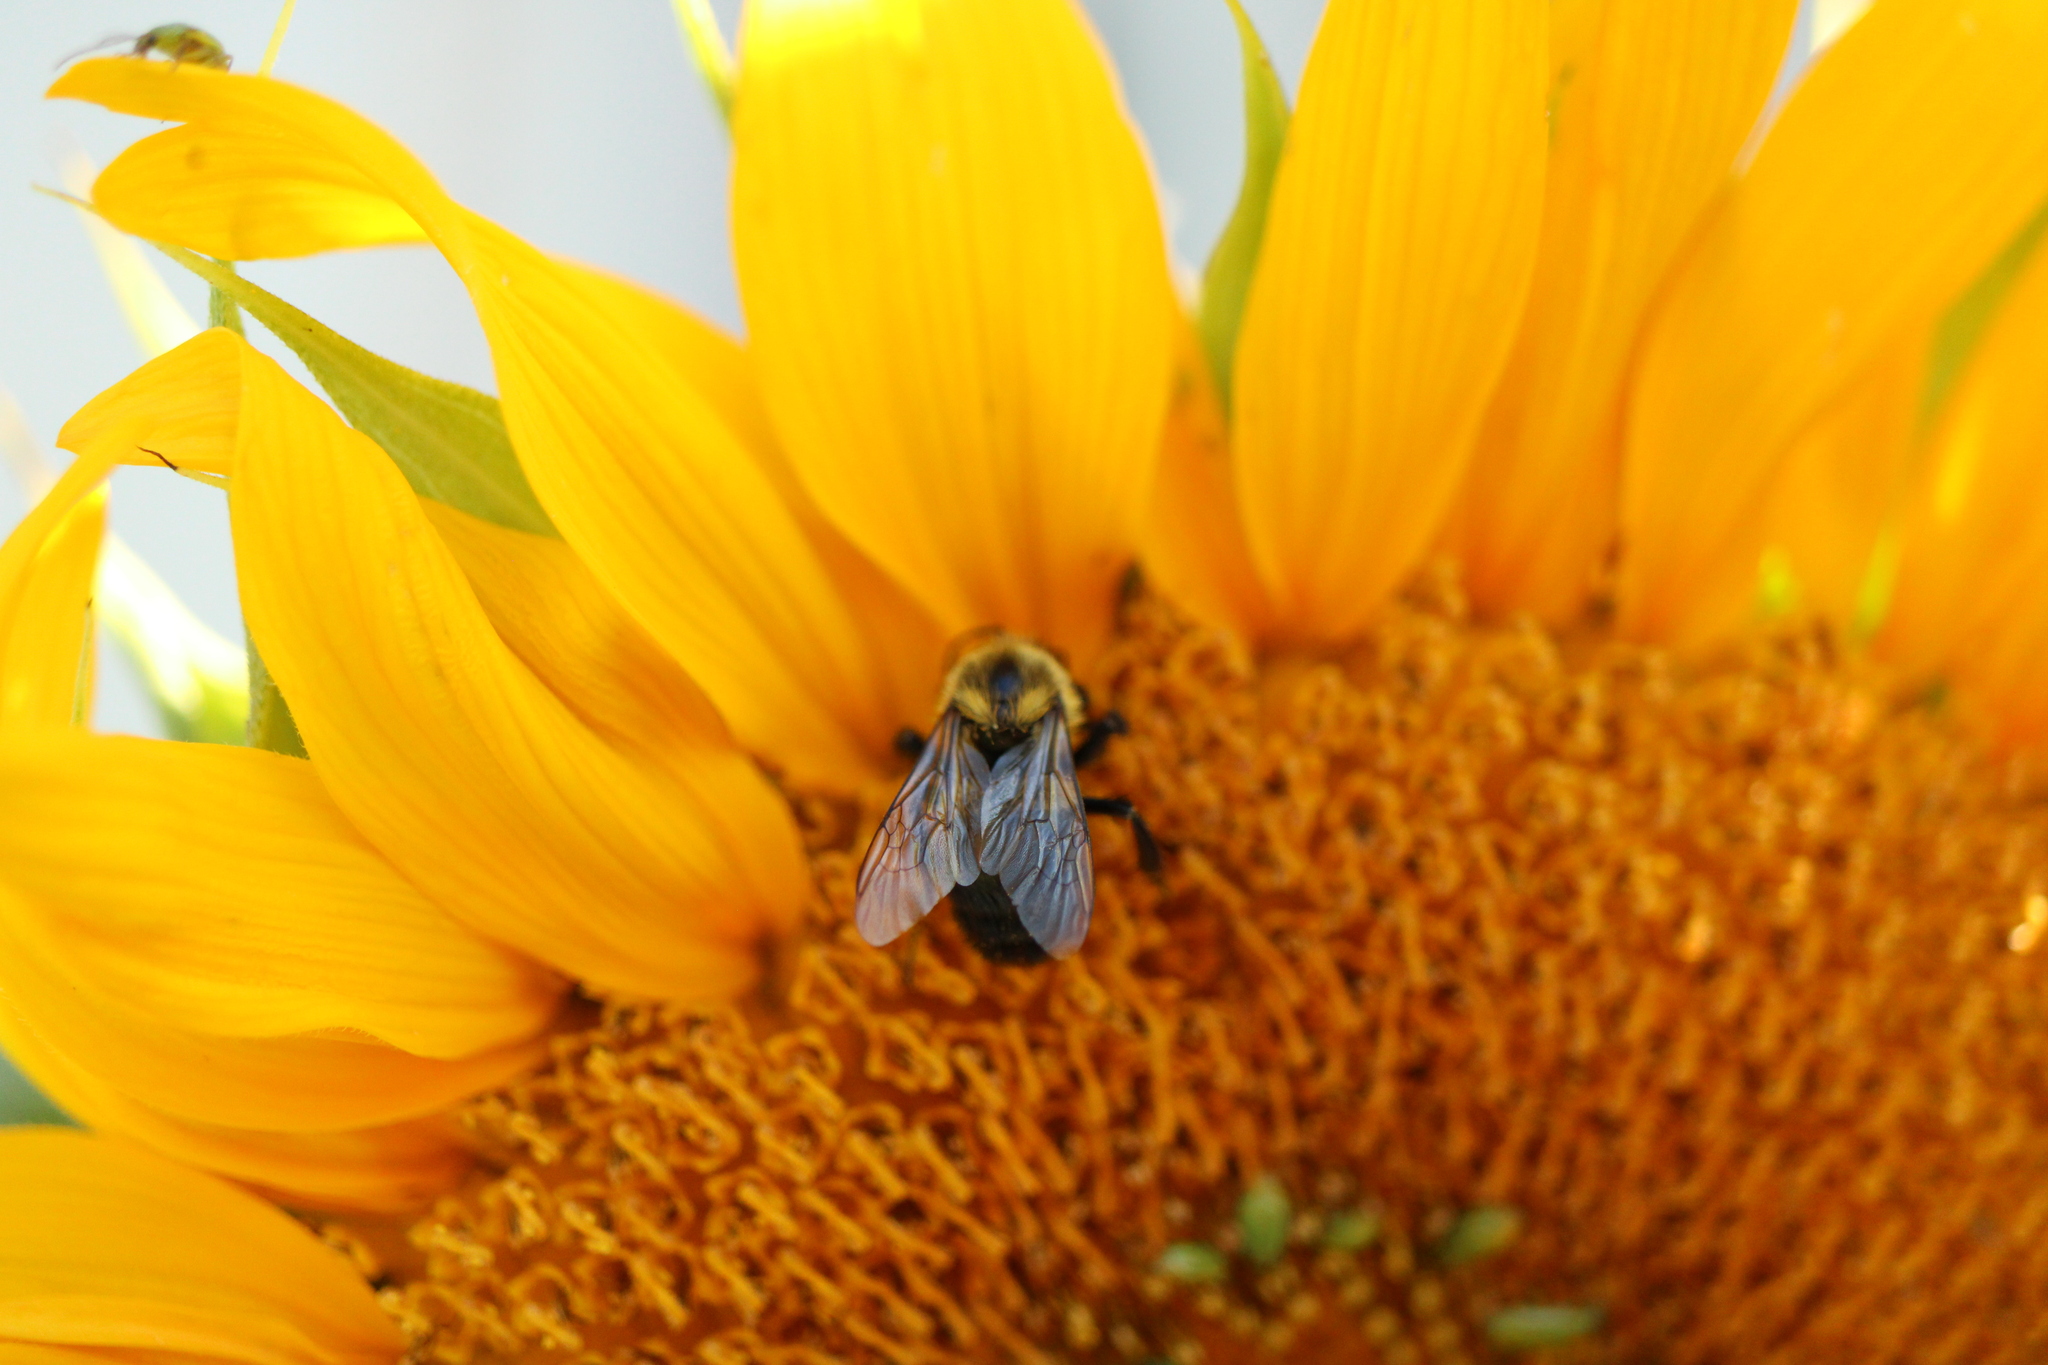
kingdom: Animalia
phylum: Arthropoda
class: Insecta
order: Hymenoptera
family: Apidae
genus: Bombus
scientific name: Bombus impatiens
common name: Common eastern bumble bee
